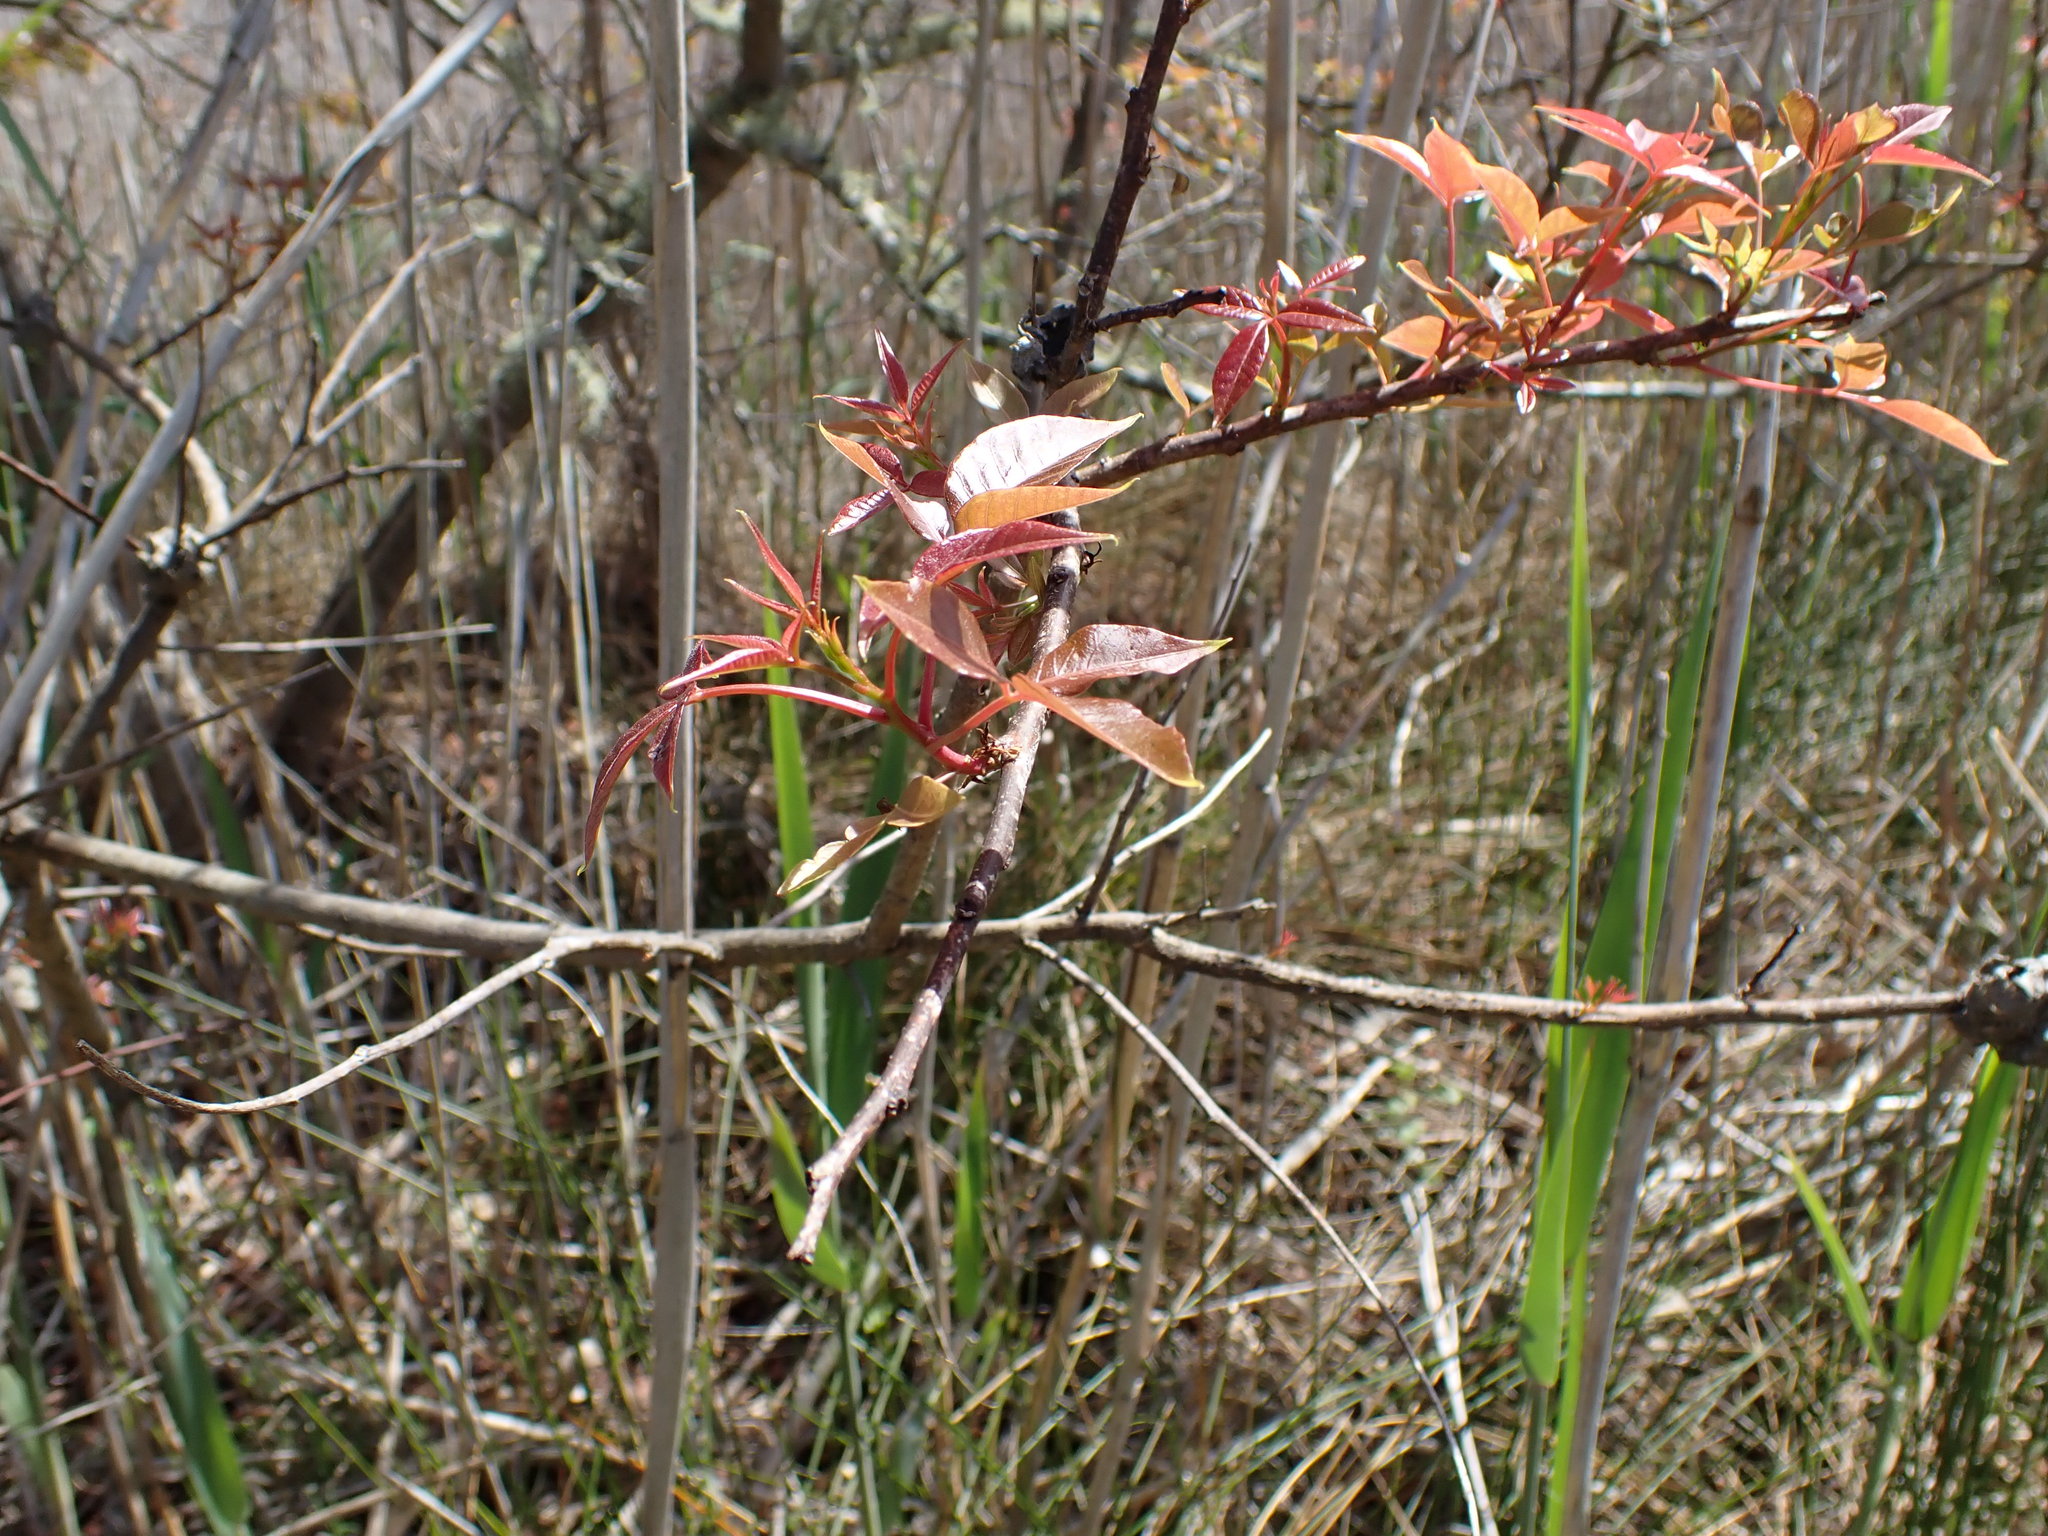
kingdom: Plantae
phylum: Tracheophyta
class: Magnoliopsida
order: Sapindales
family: Anacardiaceae
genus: Searsia
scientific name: Searsia chirindensis
